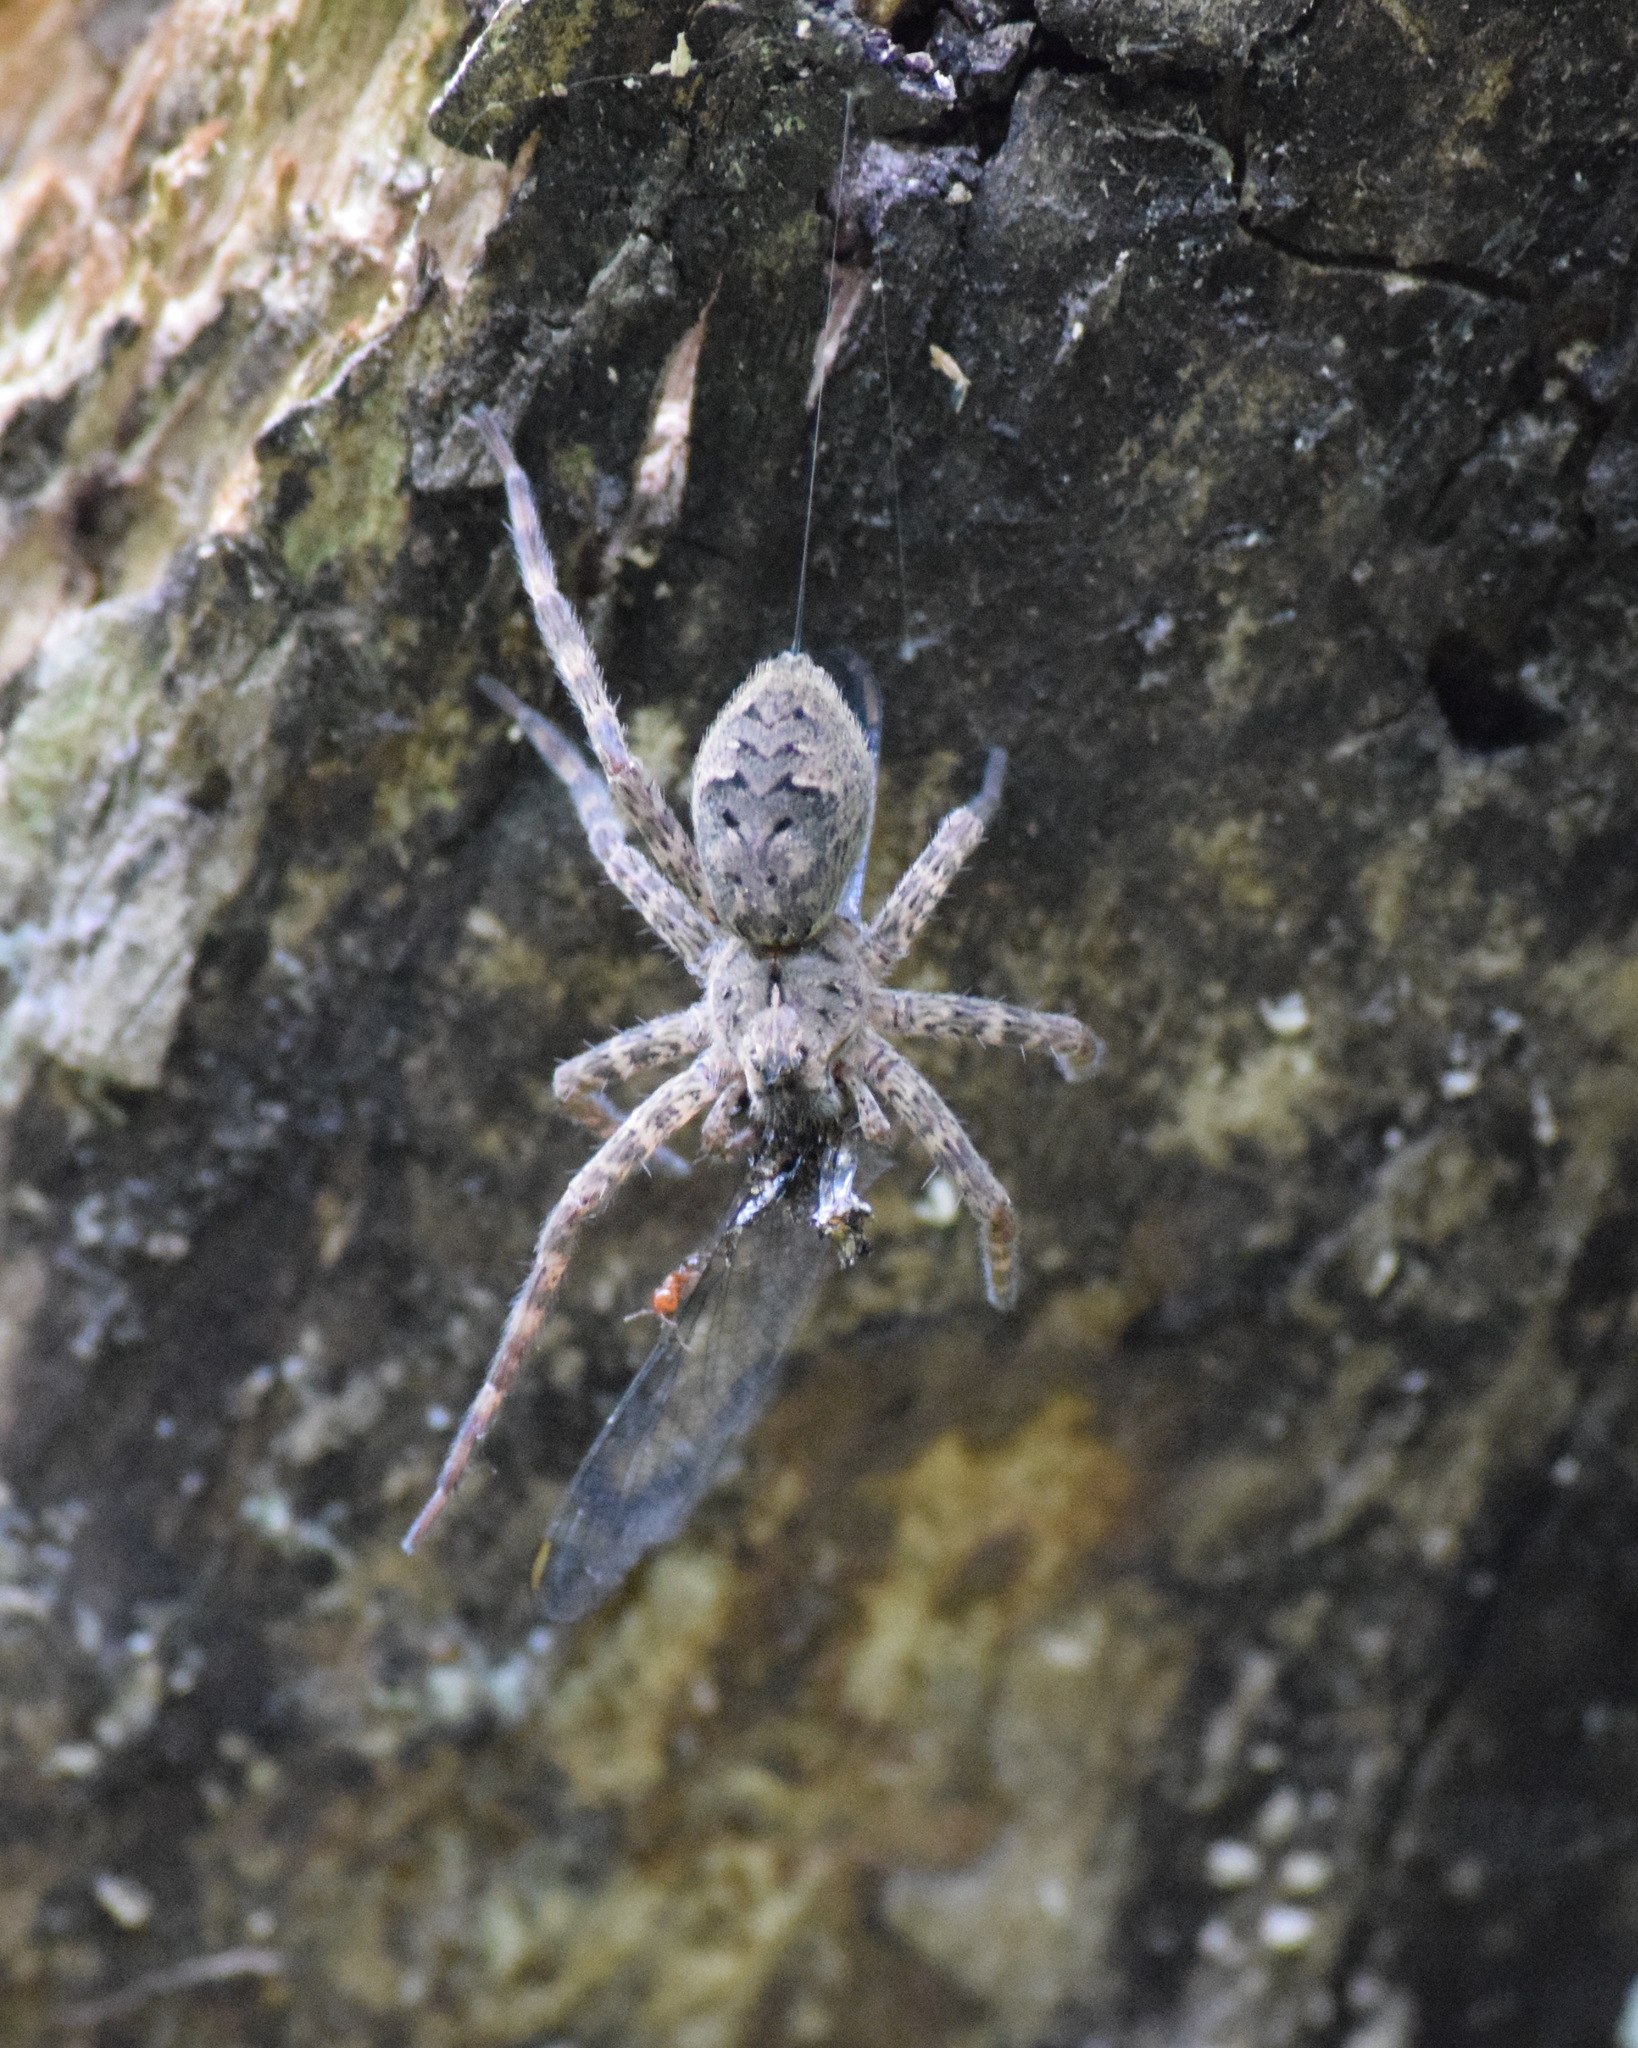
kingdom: Animalia
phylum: Arthropoda
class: Arachnida
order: Araneae
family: Pisauridae
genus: Dolomedes
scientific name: Dolomedes tenebrosus
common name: Dark fishing spider
